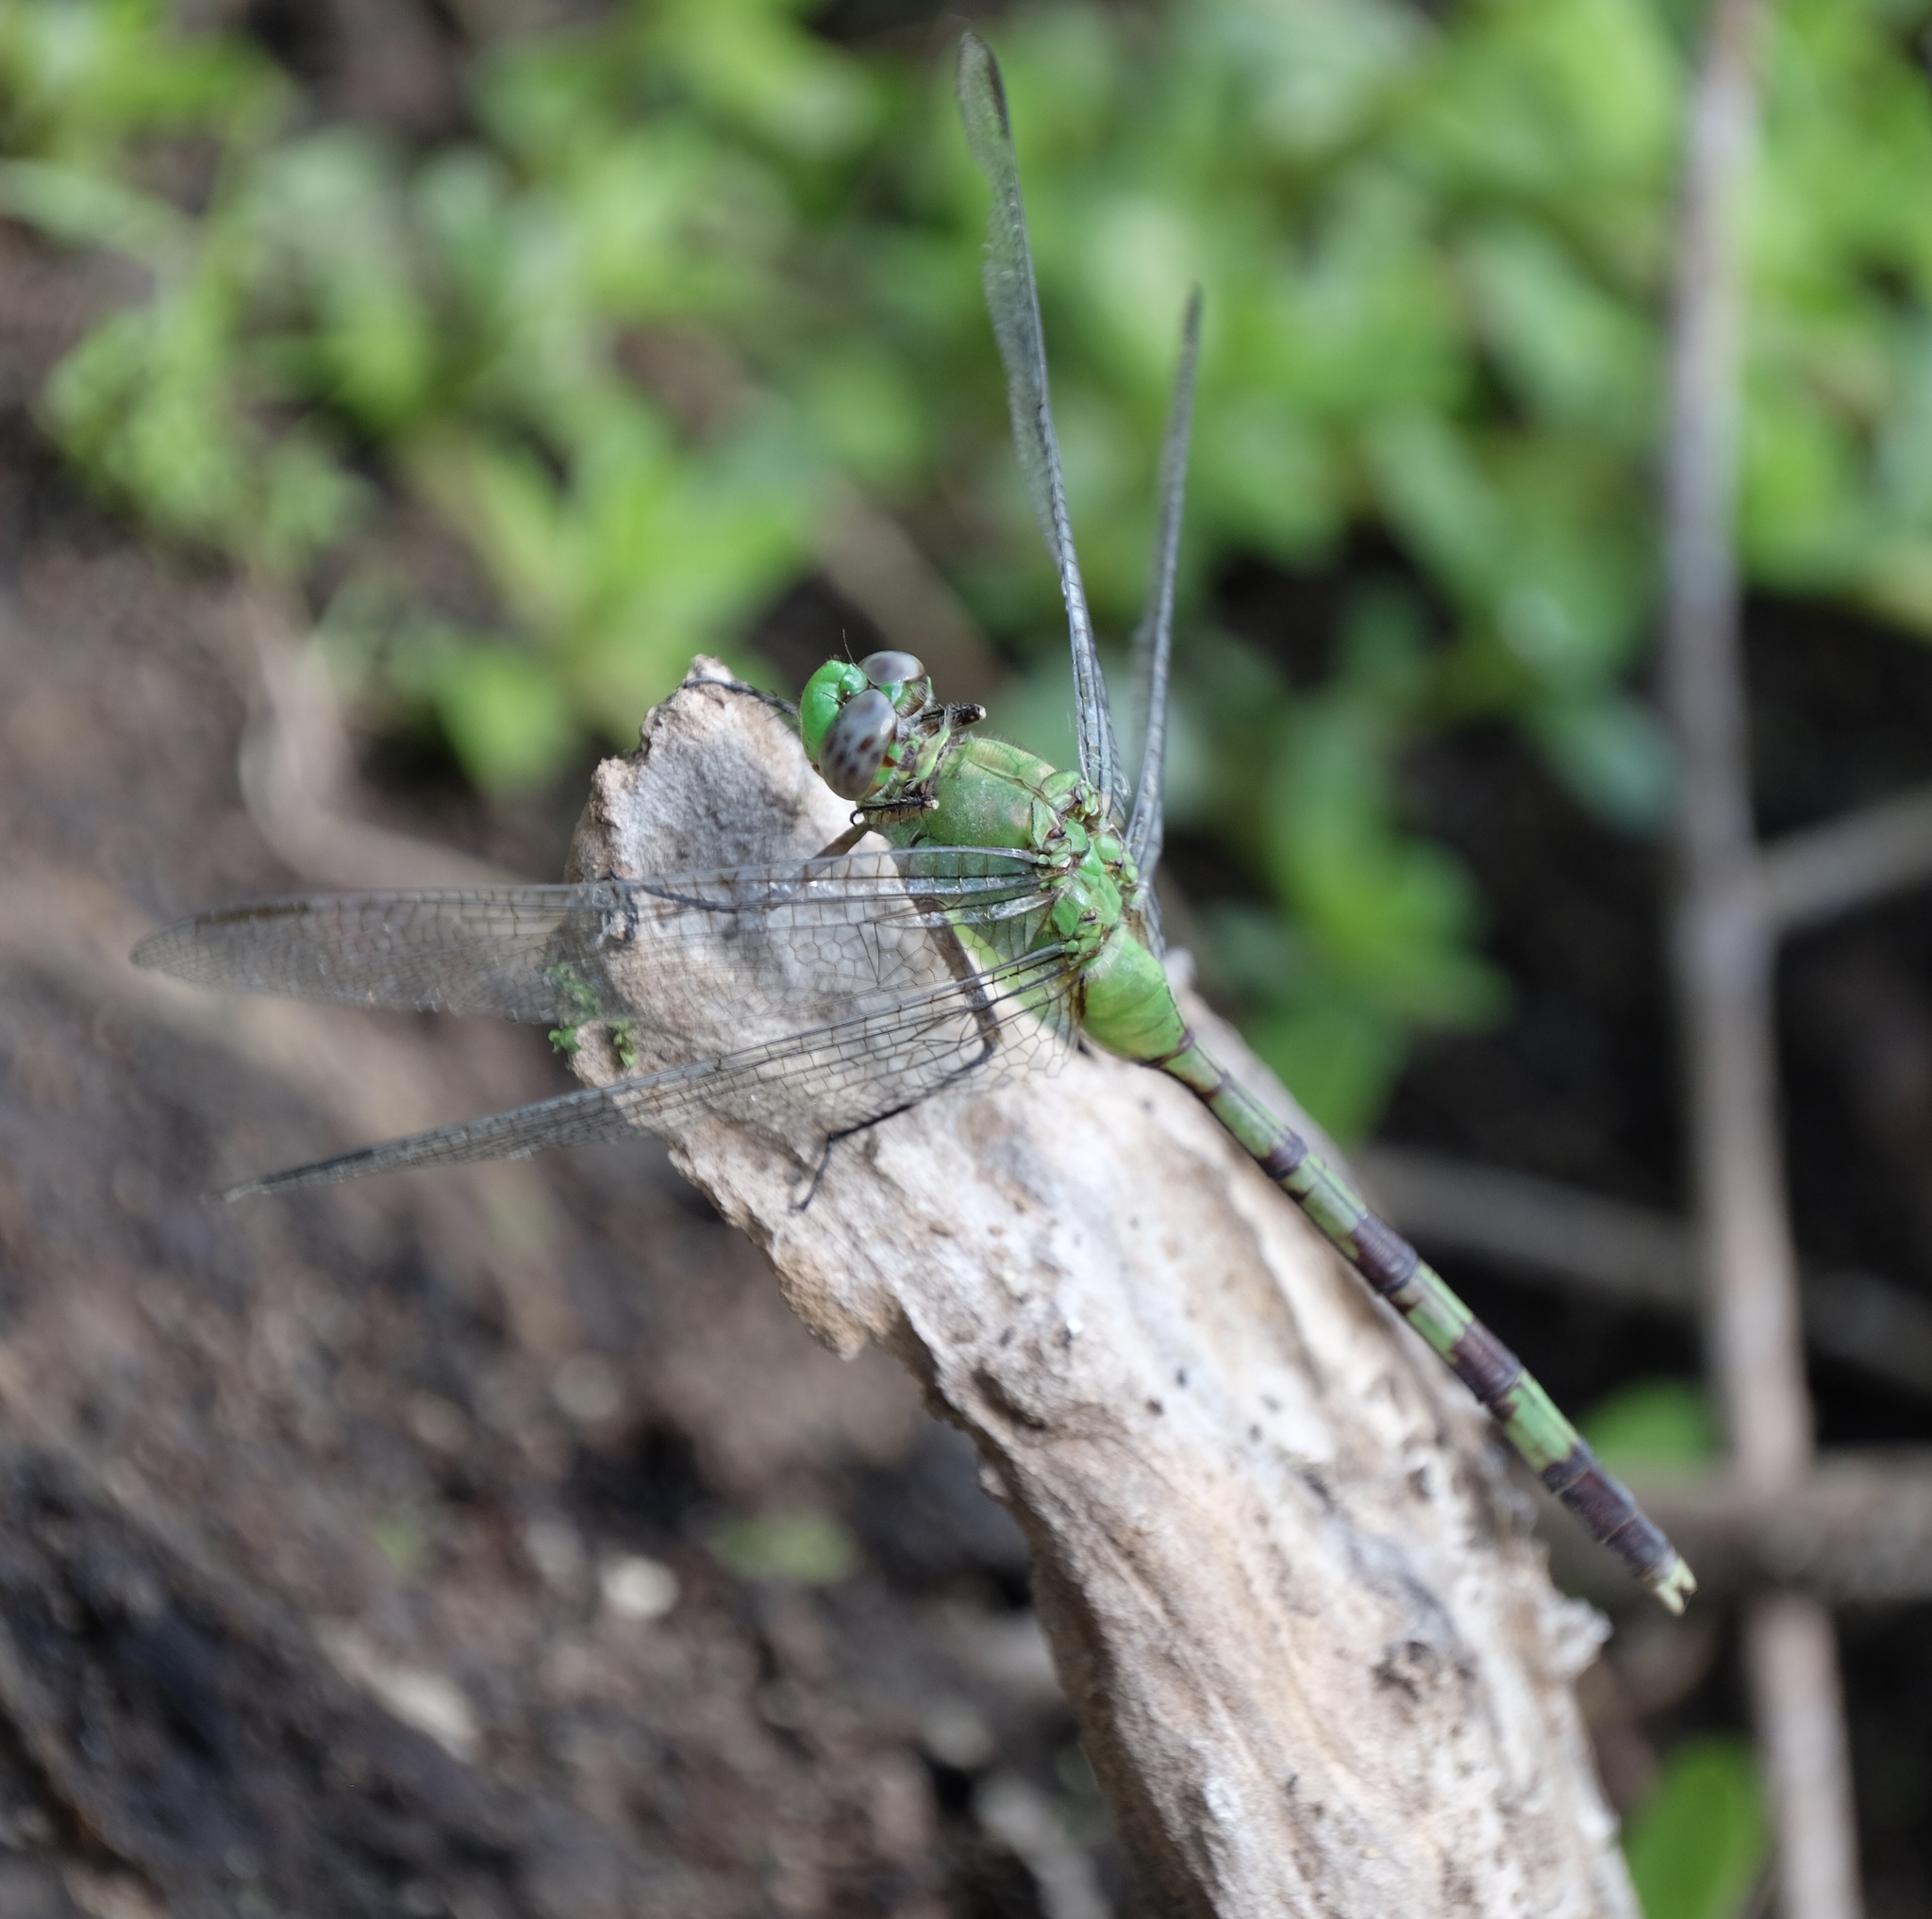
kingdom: Animalia
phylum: Arthropoda
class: Insecta
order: Odonata
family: Libellulidae
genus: Erythemis
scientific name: Erythemis vesiculosa
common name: Great pondhawk
